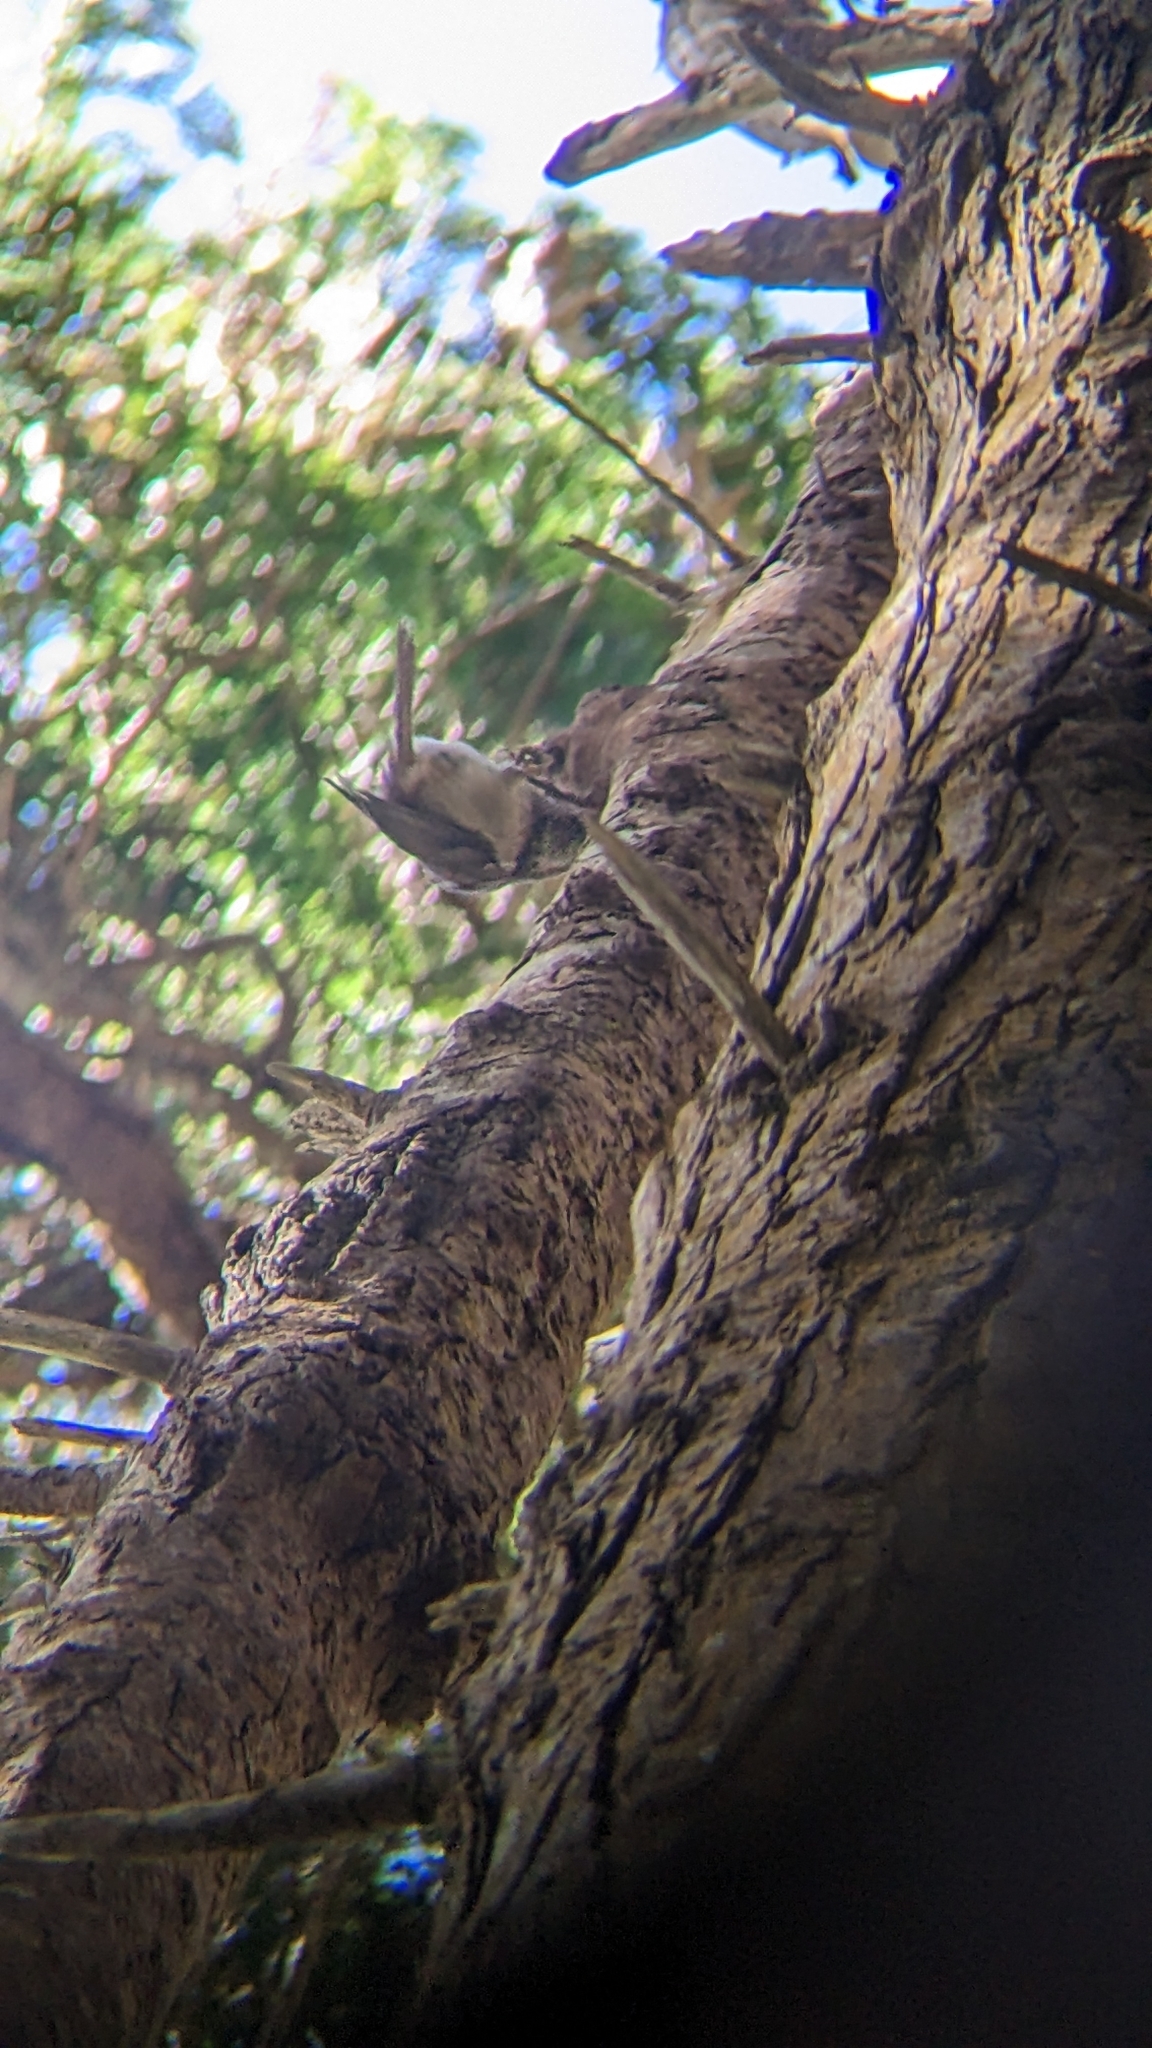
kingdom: Animalia
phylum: Chordata
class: Aves
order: Passeriformes
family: Acanthizidae
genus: Mohoua
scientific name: Mohoua albicilla
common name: Whitehead
